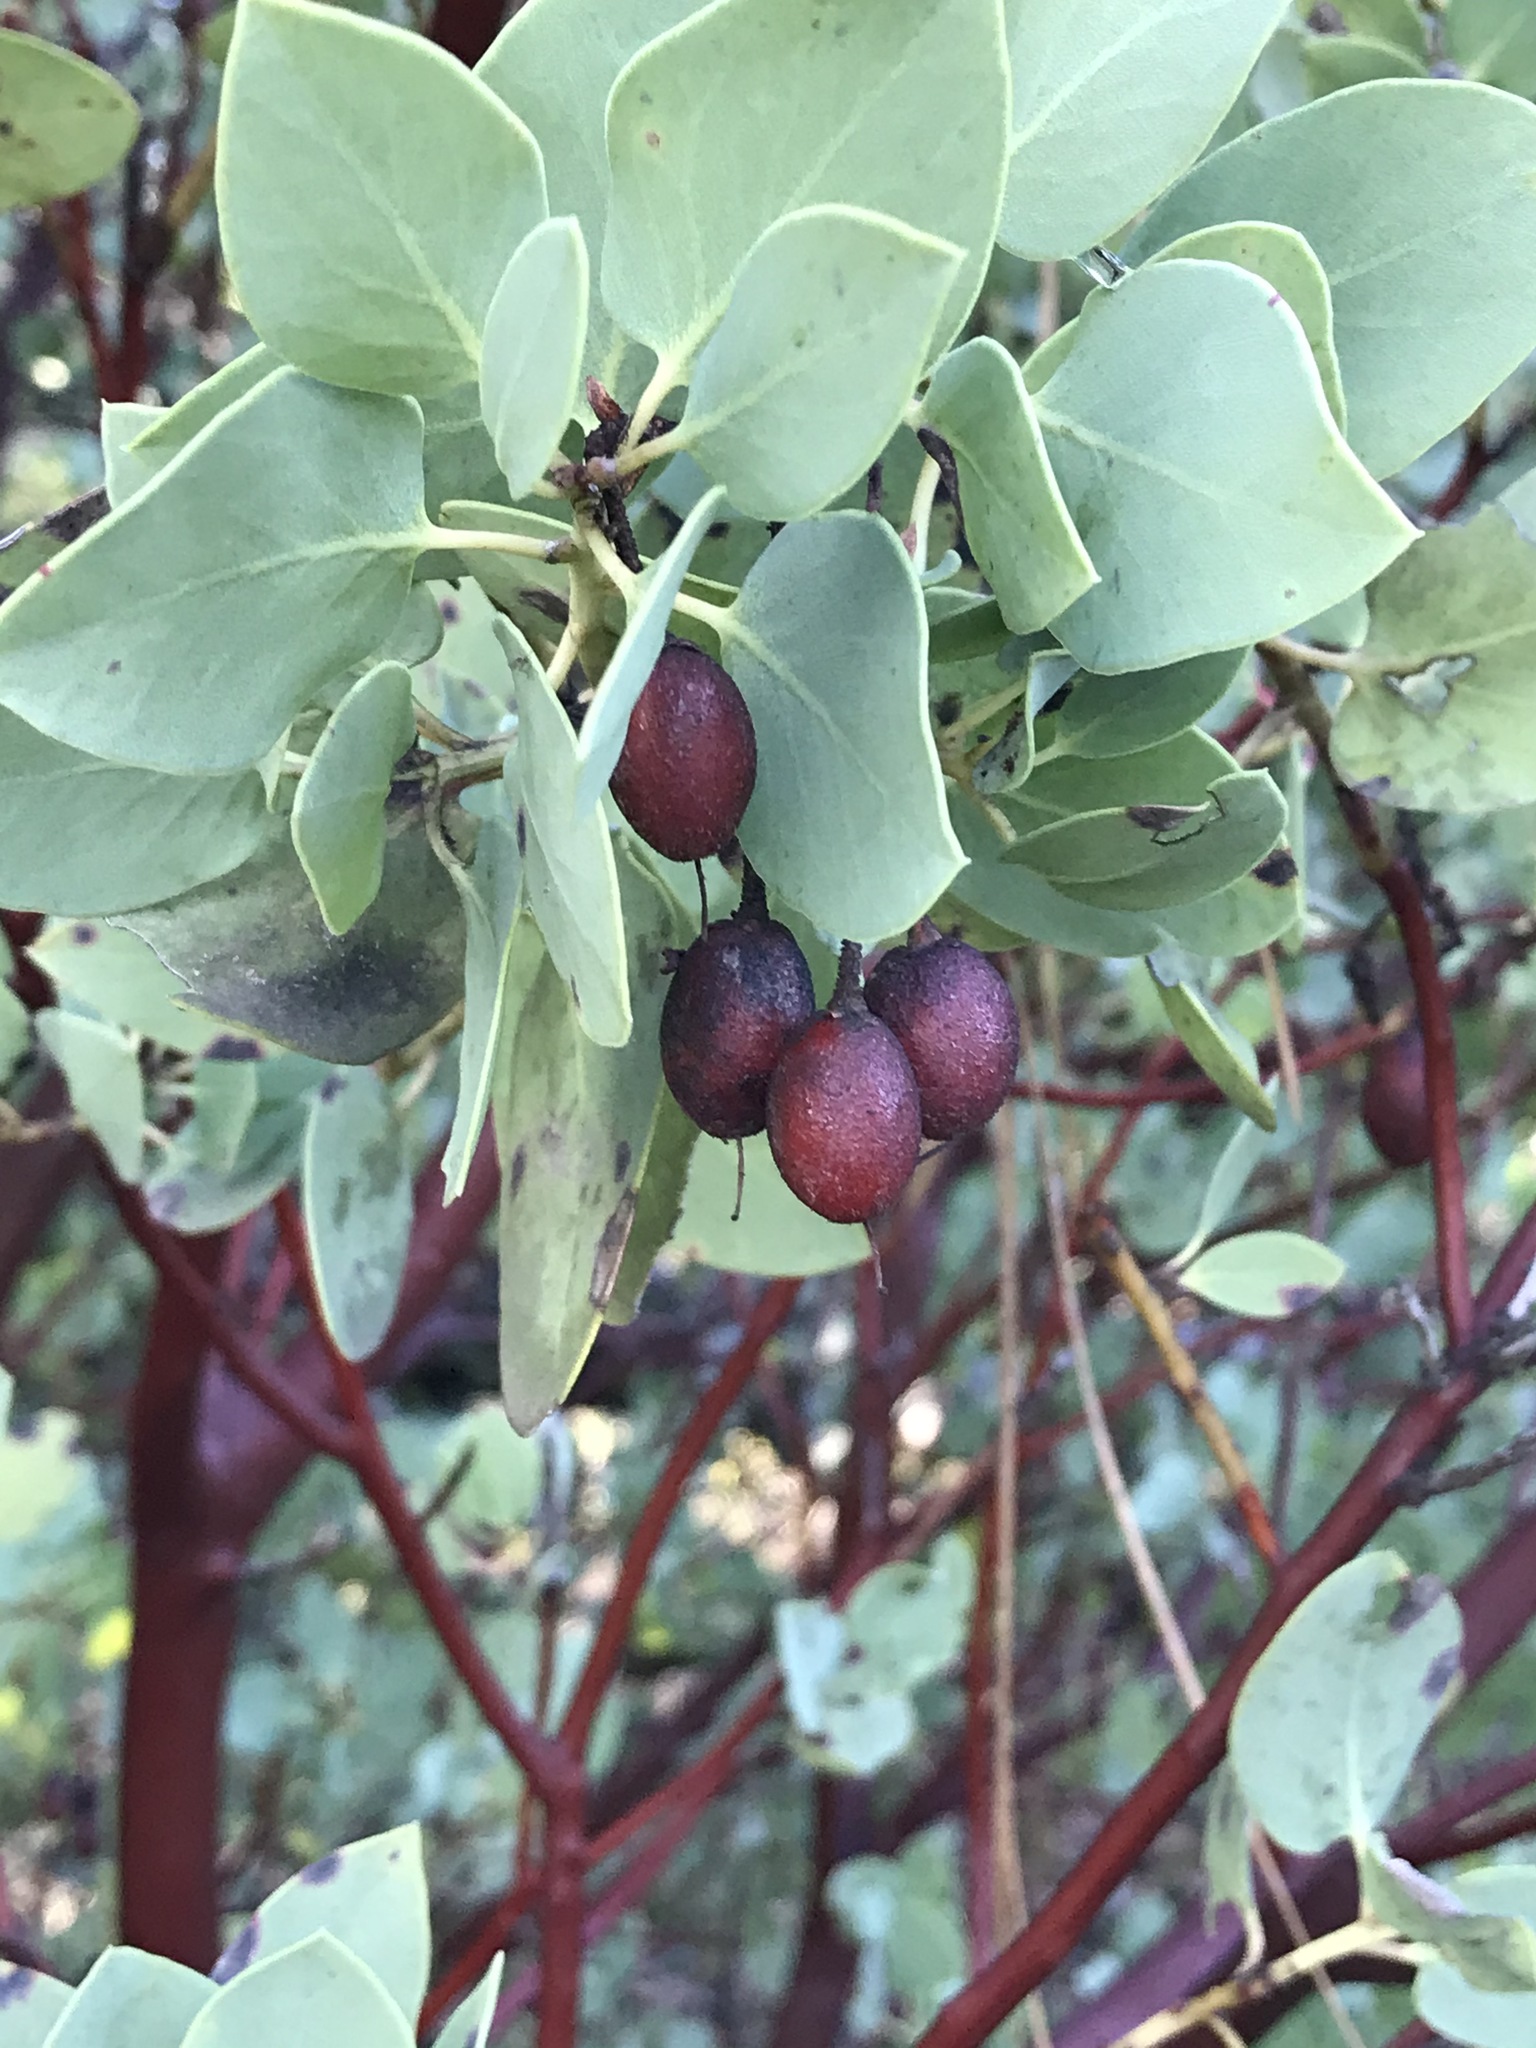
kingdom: Plantae
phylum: Tracheophyta
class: Magnoliopsida
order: Ericales
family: Ericaceae
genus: Arctostaphylos
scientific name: Arctostaphylos glauca
